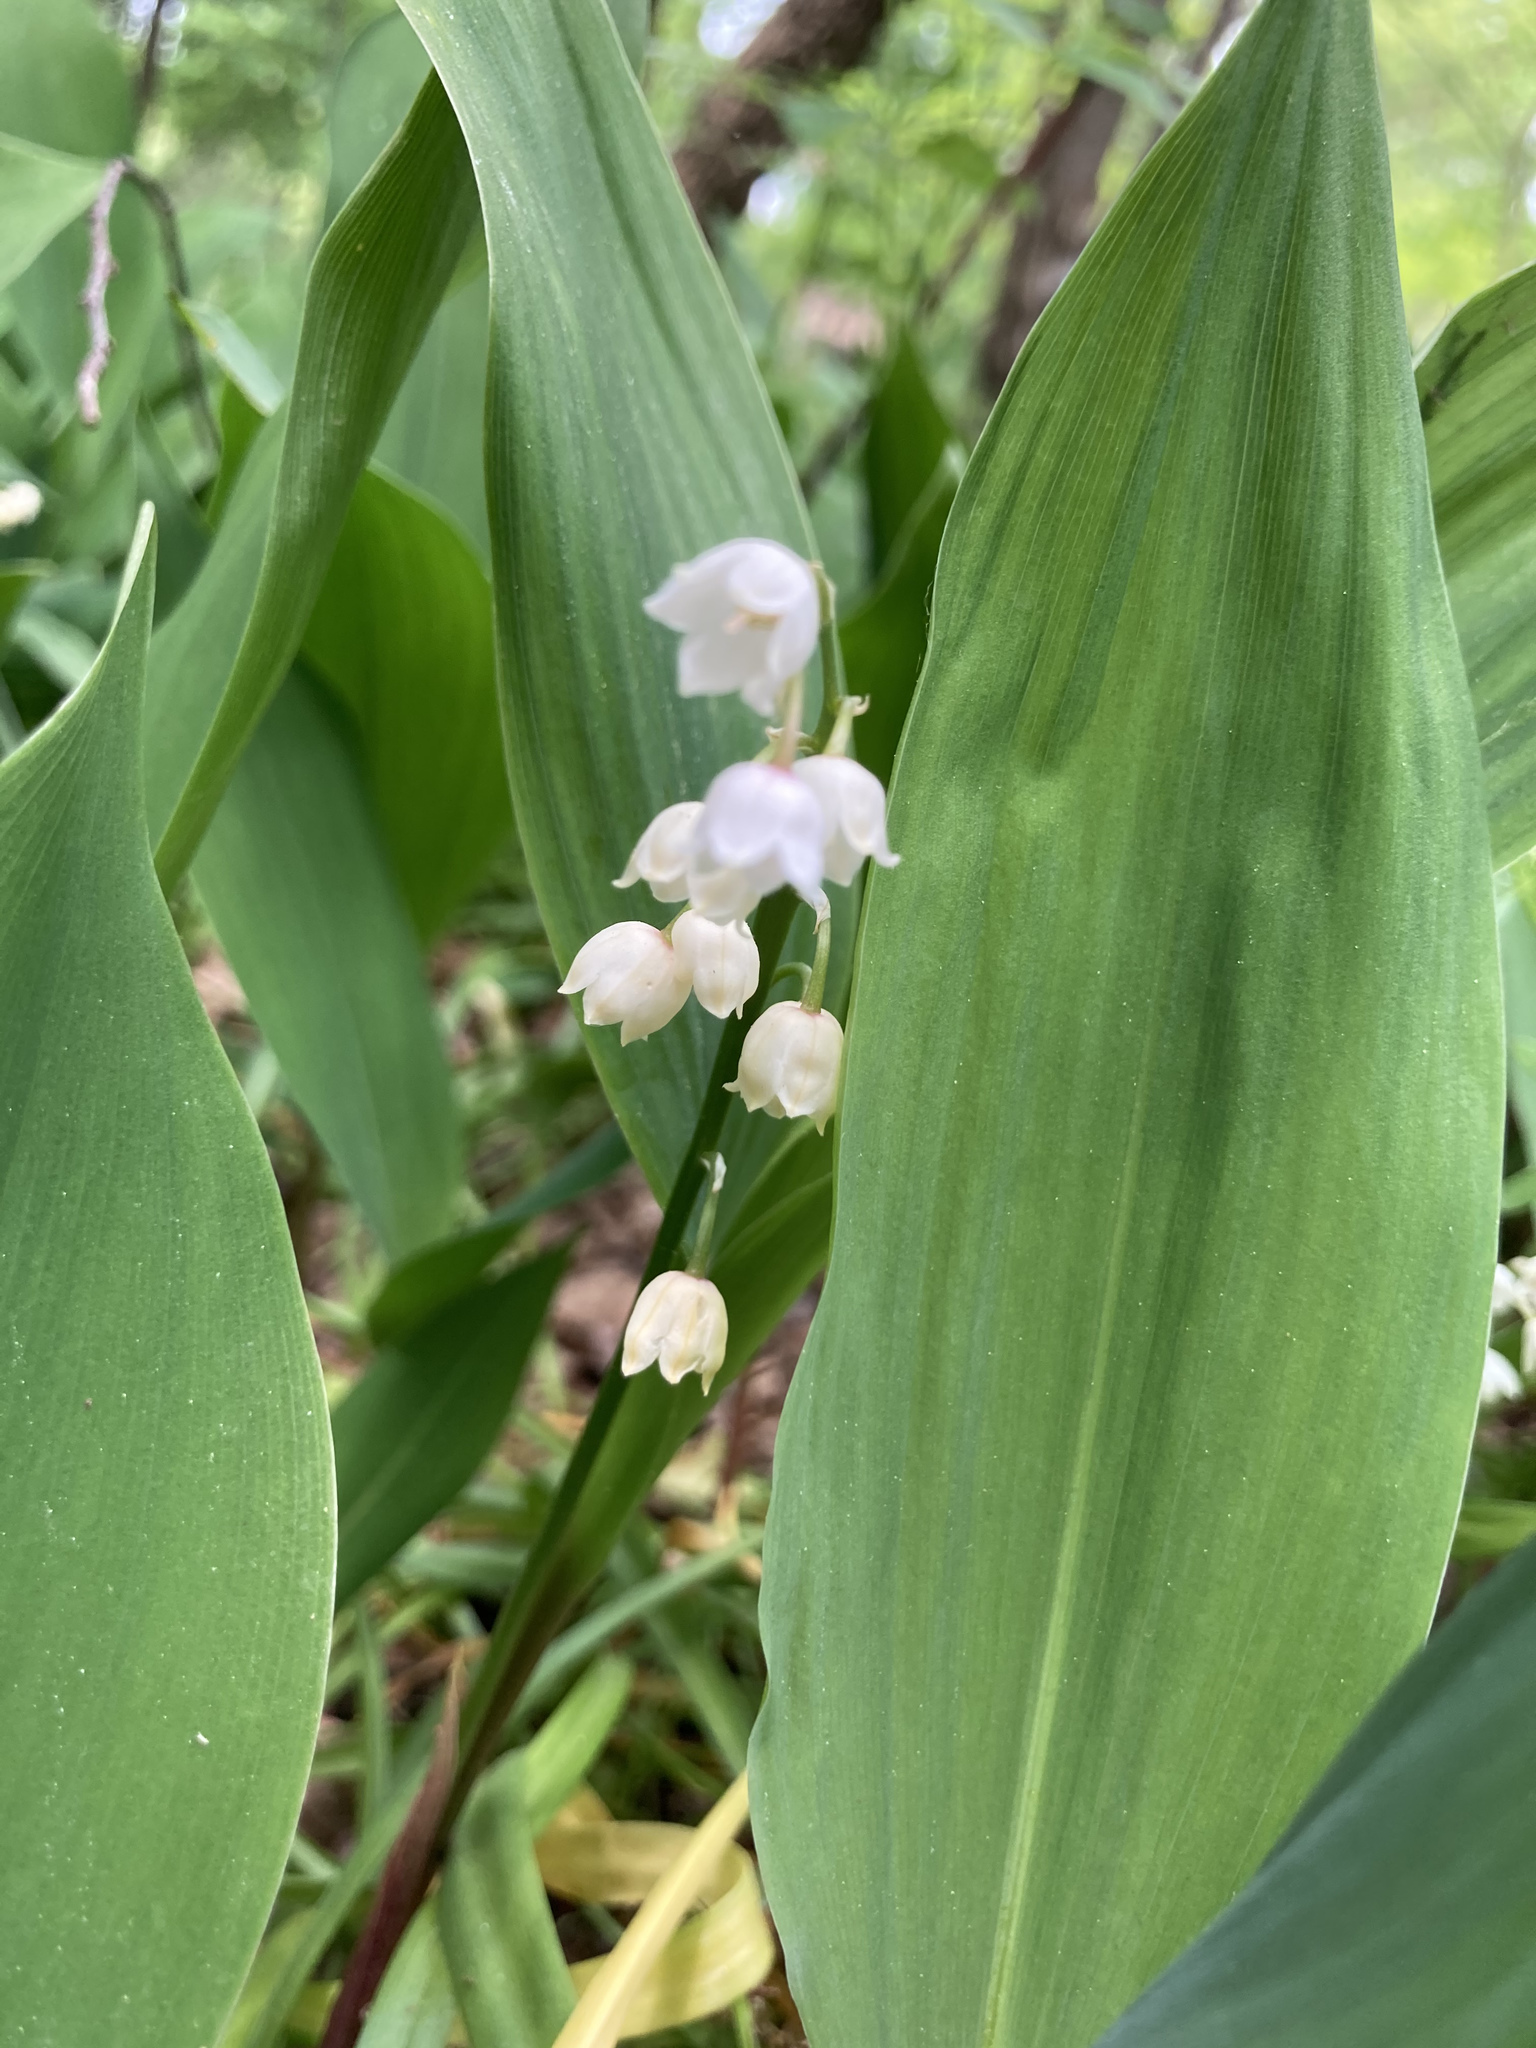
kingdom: Plantae
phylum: Tracheophyta
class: Liliopsida
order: Asparagales
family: Asparagaceae
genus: Convallaria
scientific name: Convallaria majalis
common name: Lily-of-the-valley
